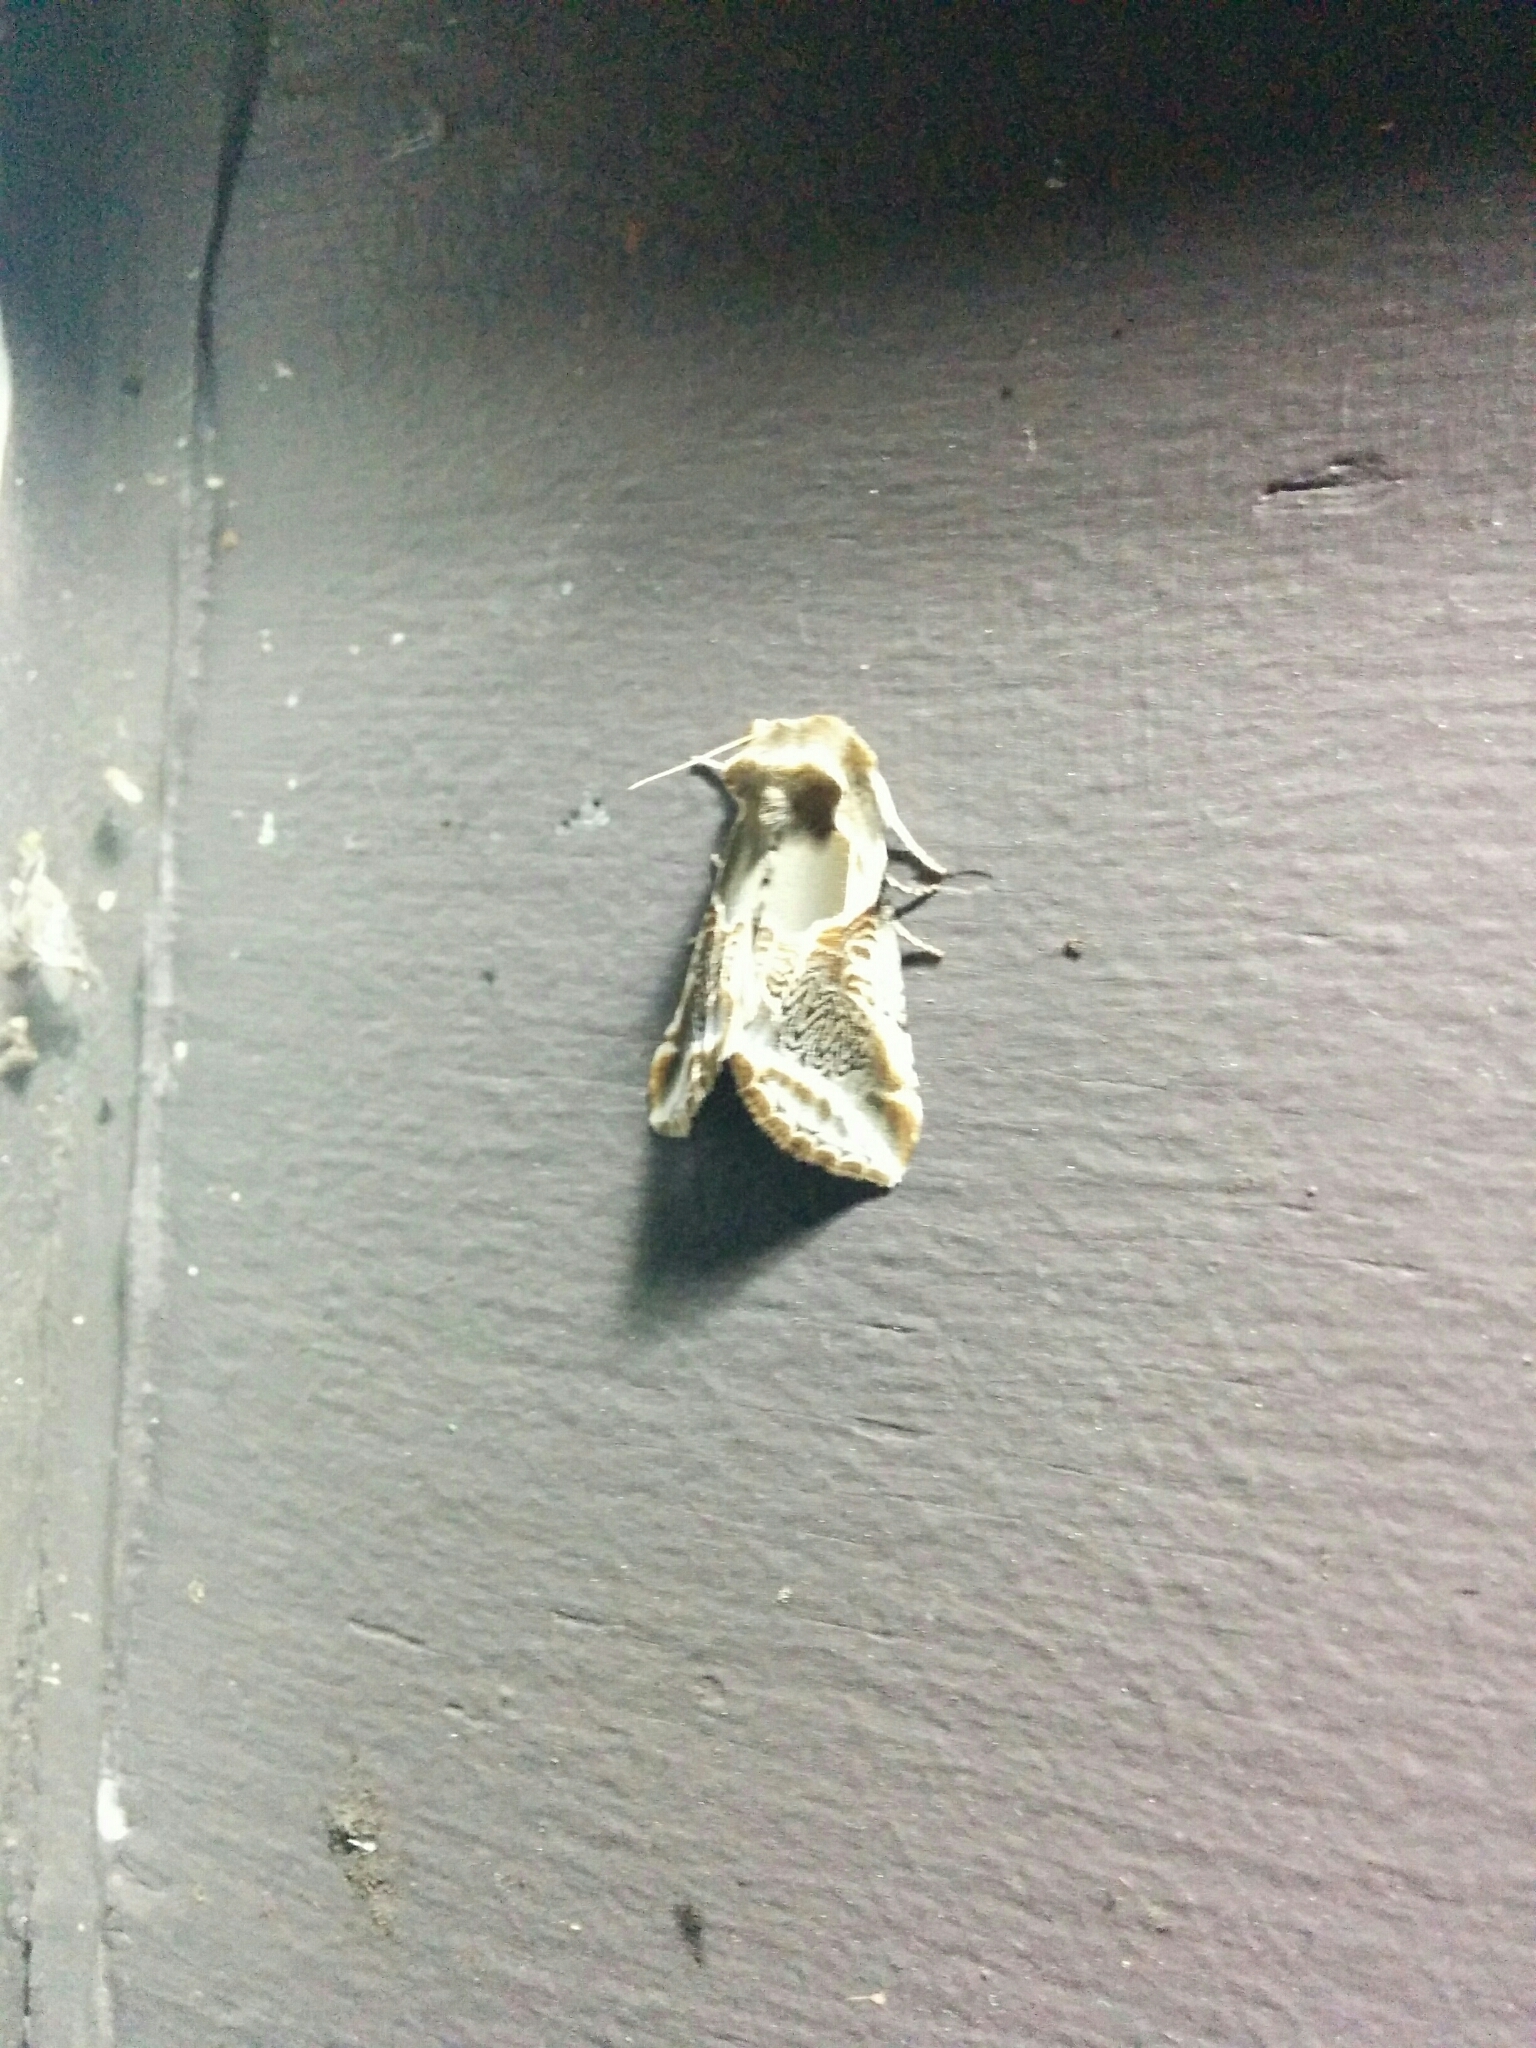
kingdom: Animalia
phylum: Arthropoda
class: Insecta
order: Lepidoptera
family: Drepanidae
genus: Habrosyne
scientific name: Habrosyne scripta
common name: Lettered habrosyne moth
